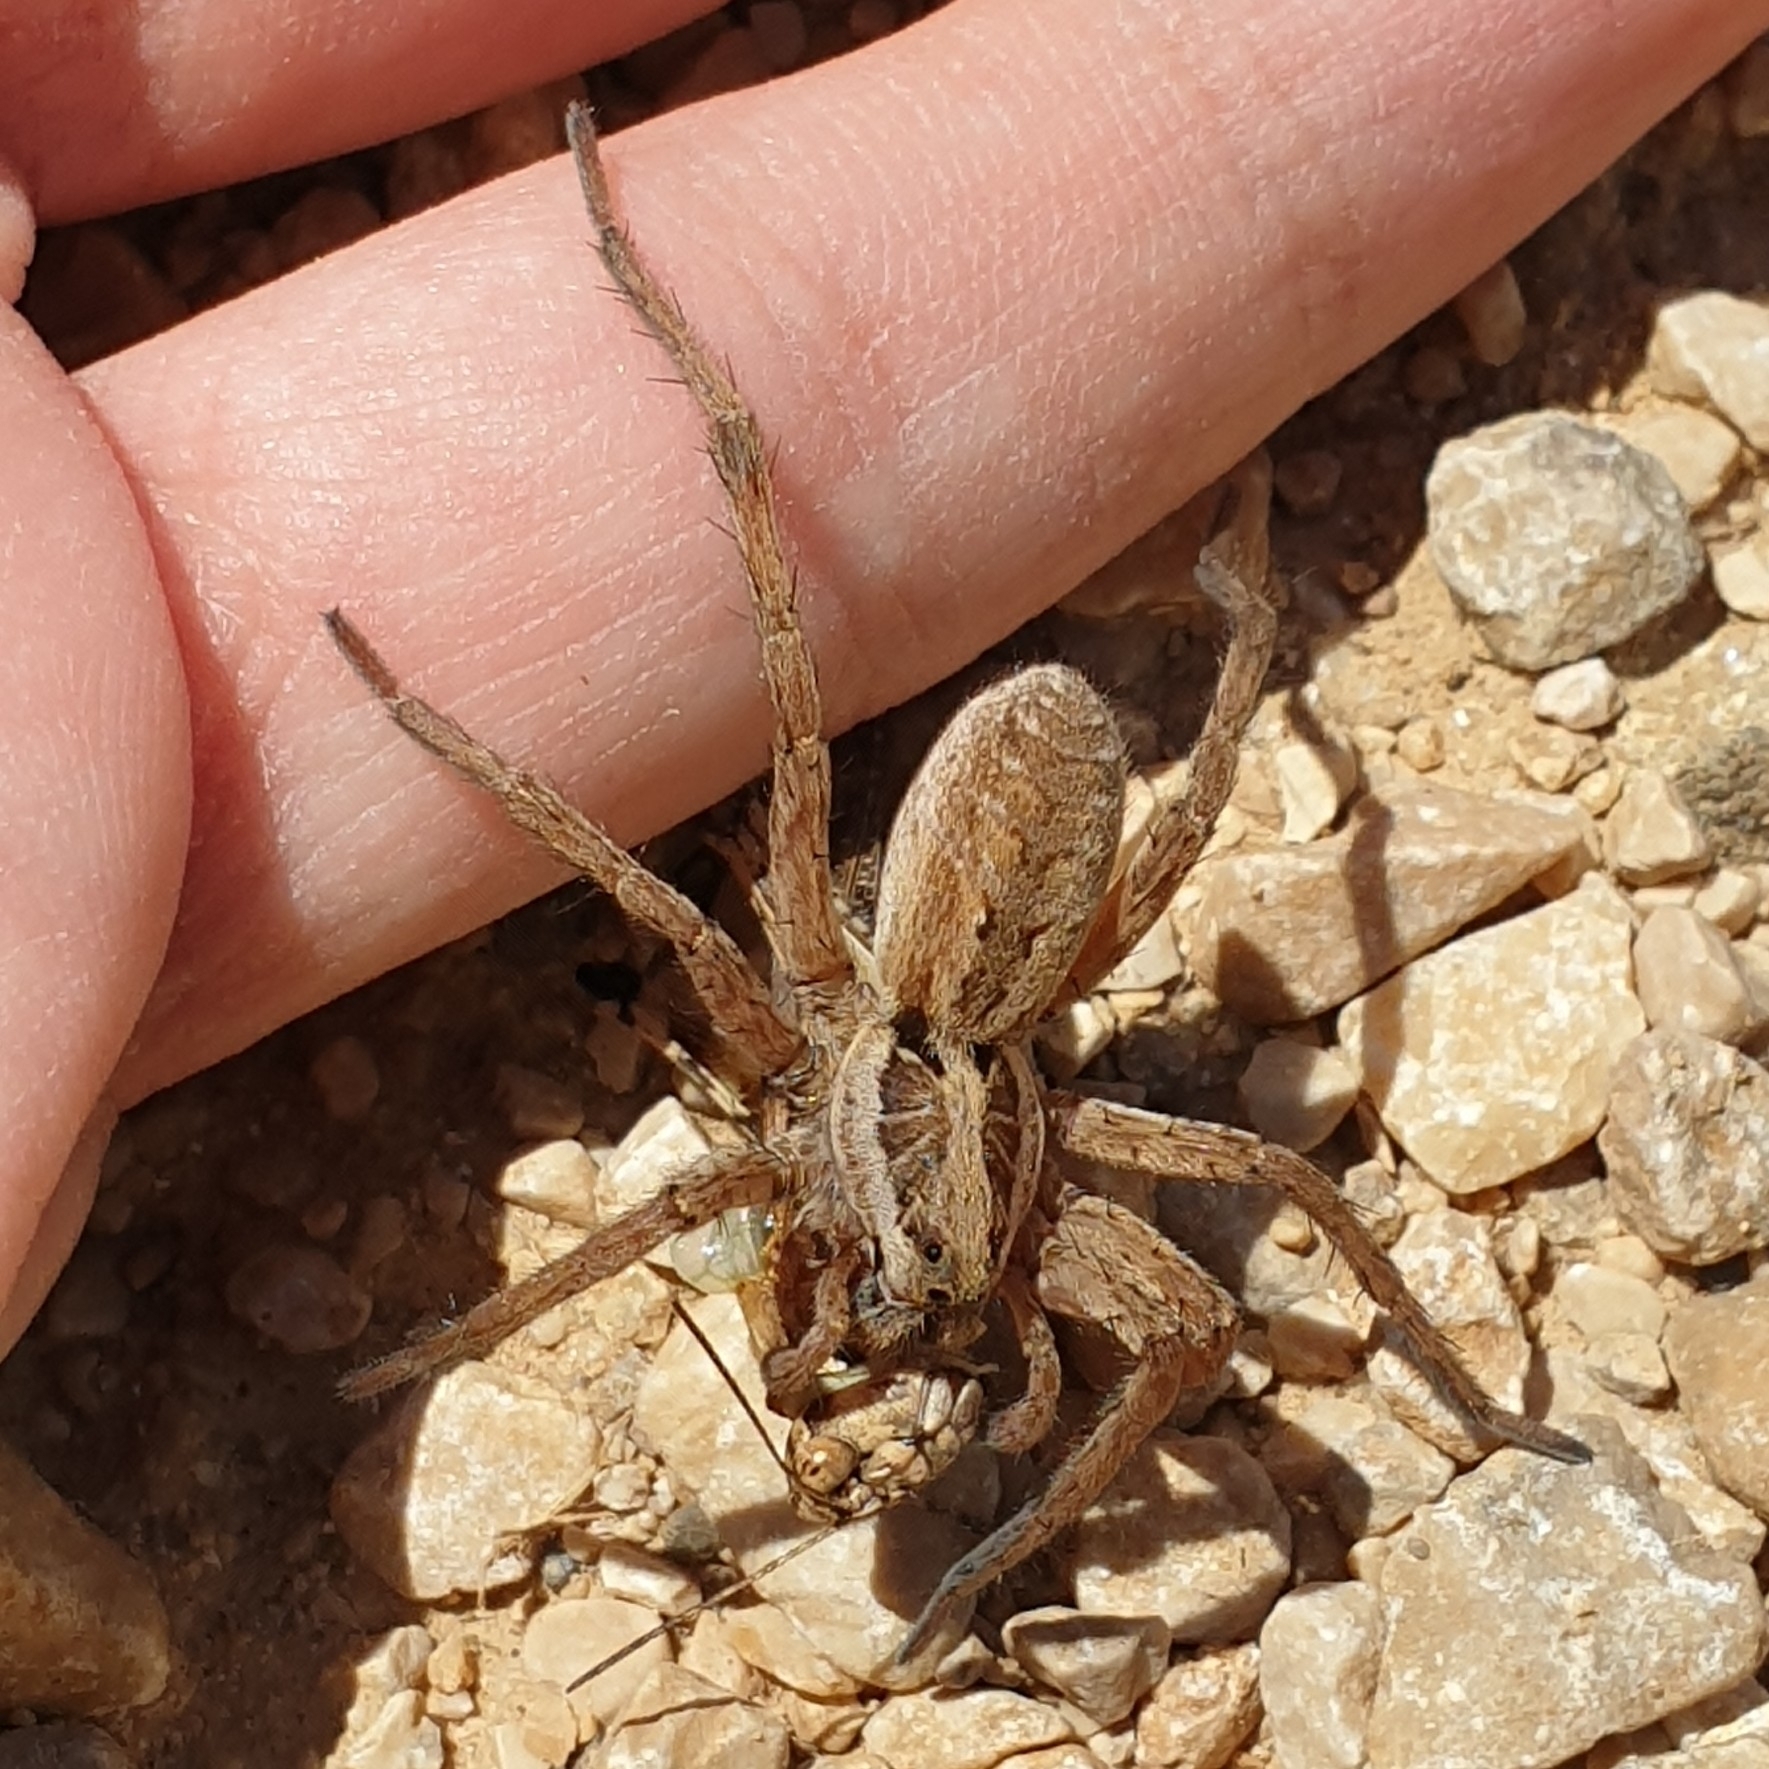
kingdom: Animalia
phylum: Arthropoda
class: Arachnida
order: Araneae
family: Lycosidae
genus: Hogna
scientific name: Hogna radiata
